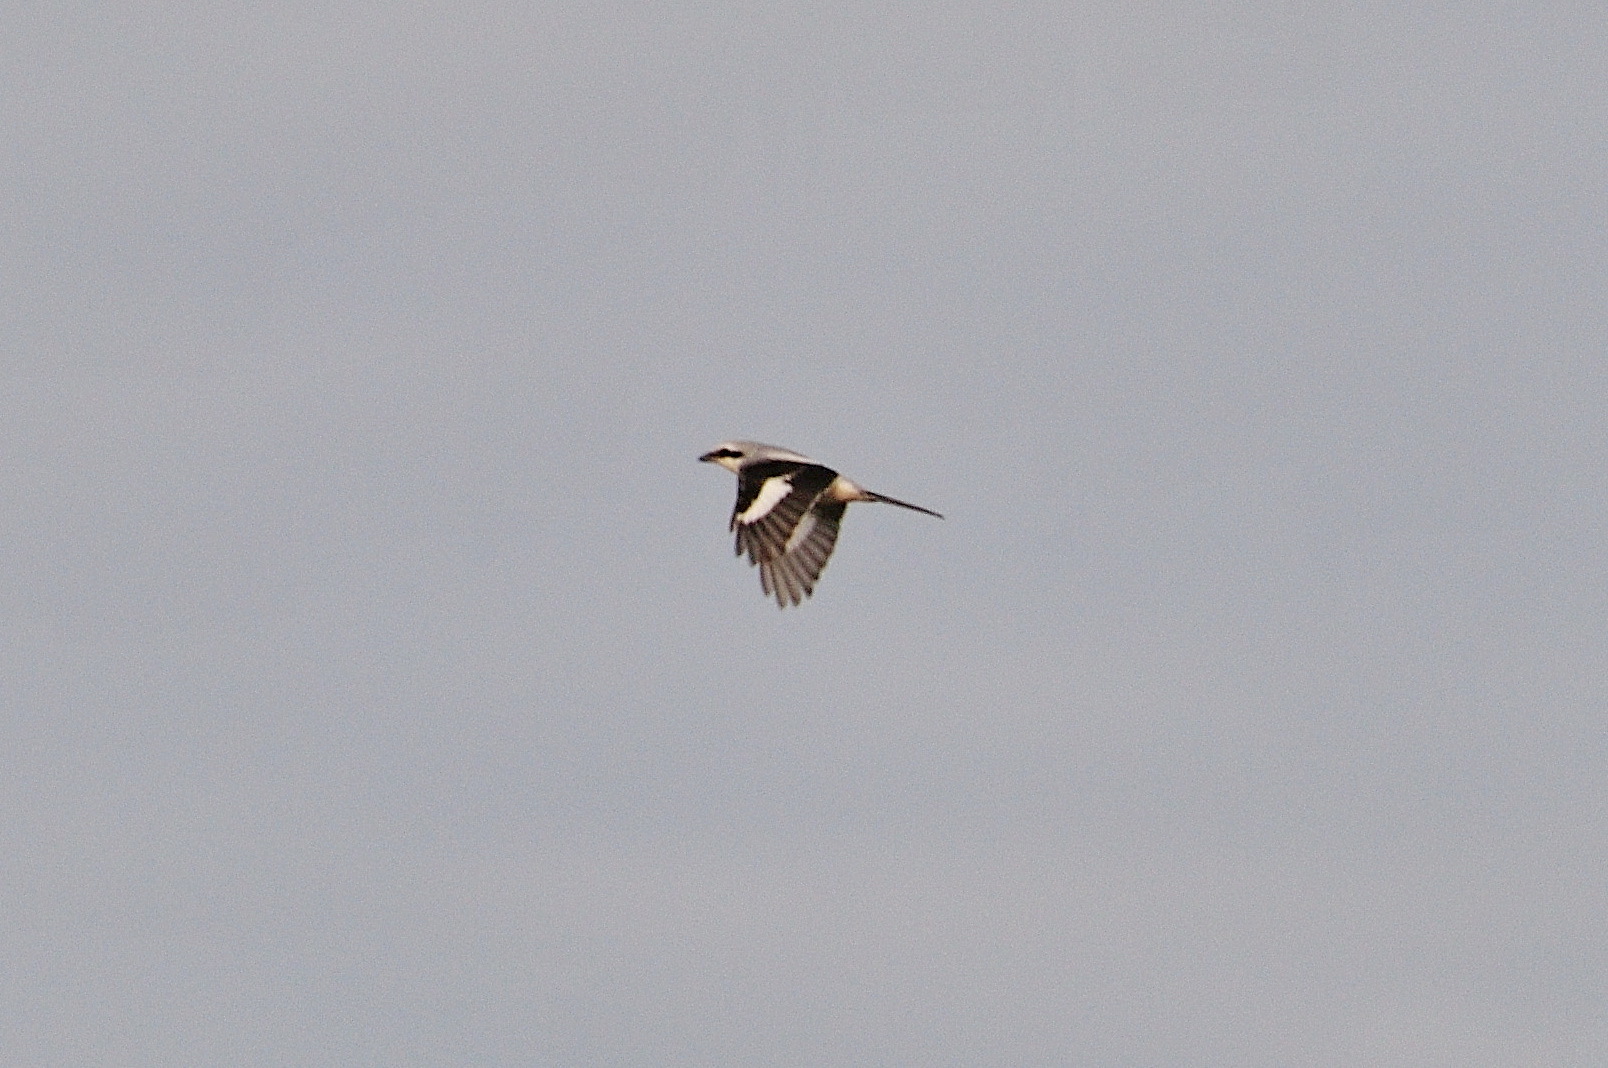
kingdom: Animalia
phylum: Chordata
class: Aves
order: Passeriformes
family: Laniidae
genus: Lanius
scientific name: Lanius excubitor
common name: Great grey shrike
